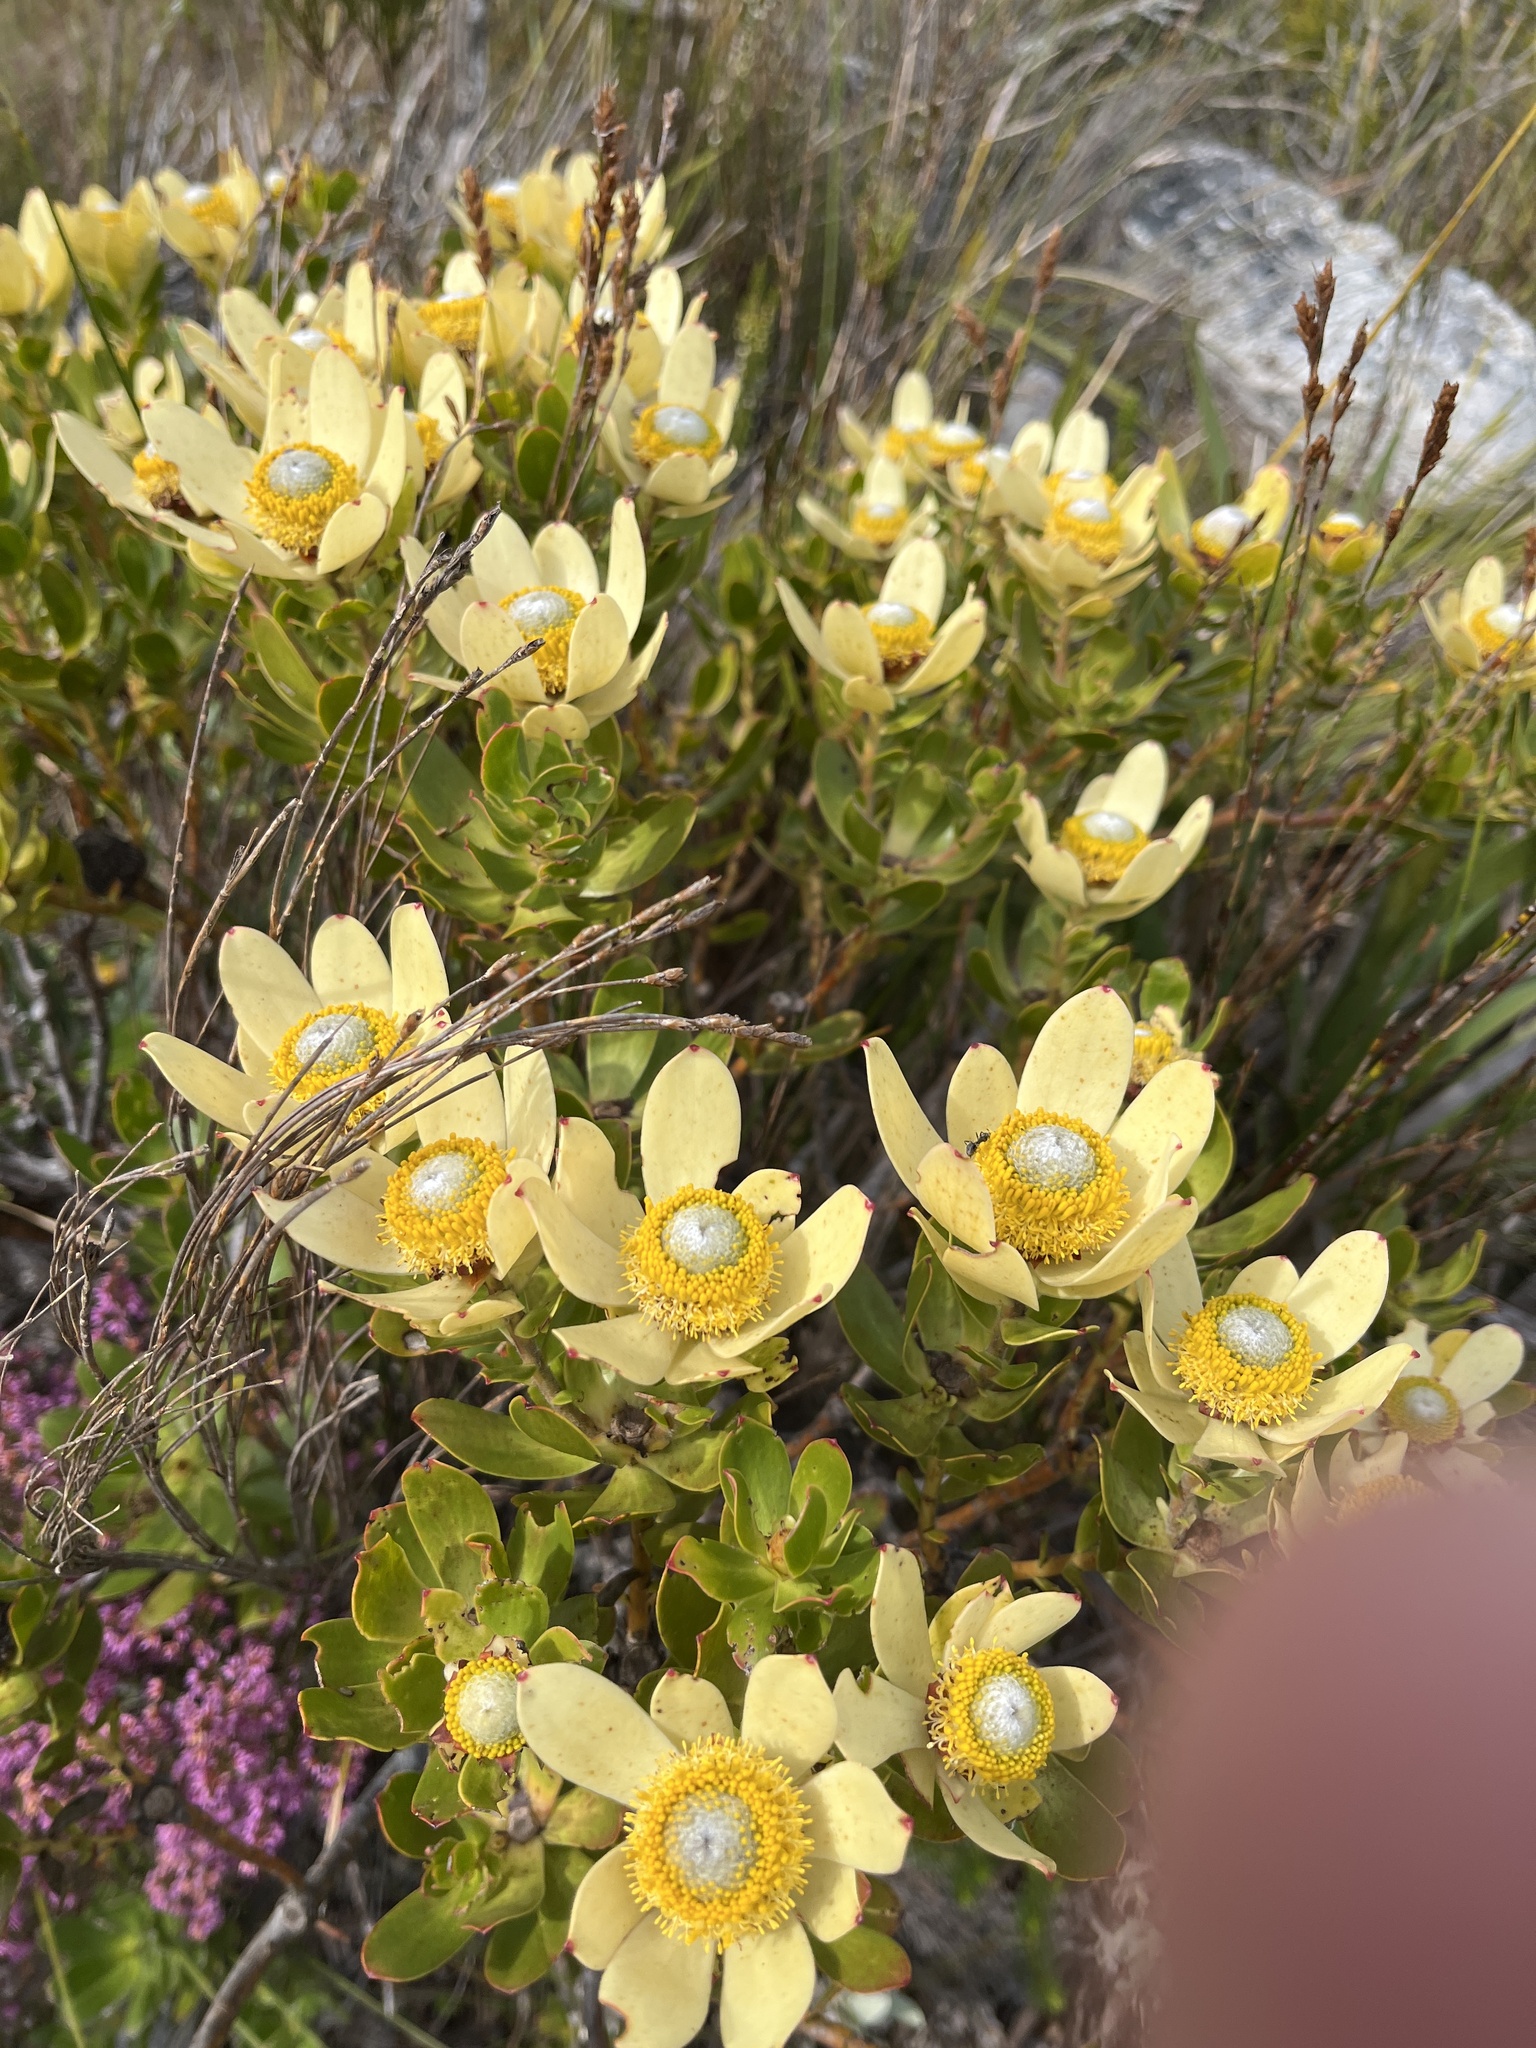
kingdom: Plantae
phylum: Tracheophyta
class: Magnoliopsida
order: Proteales
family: Proteaceae
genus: Leucadendron
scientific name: Leucadendron strobilinum
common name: Mountain rose
